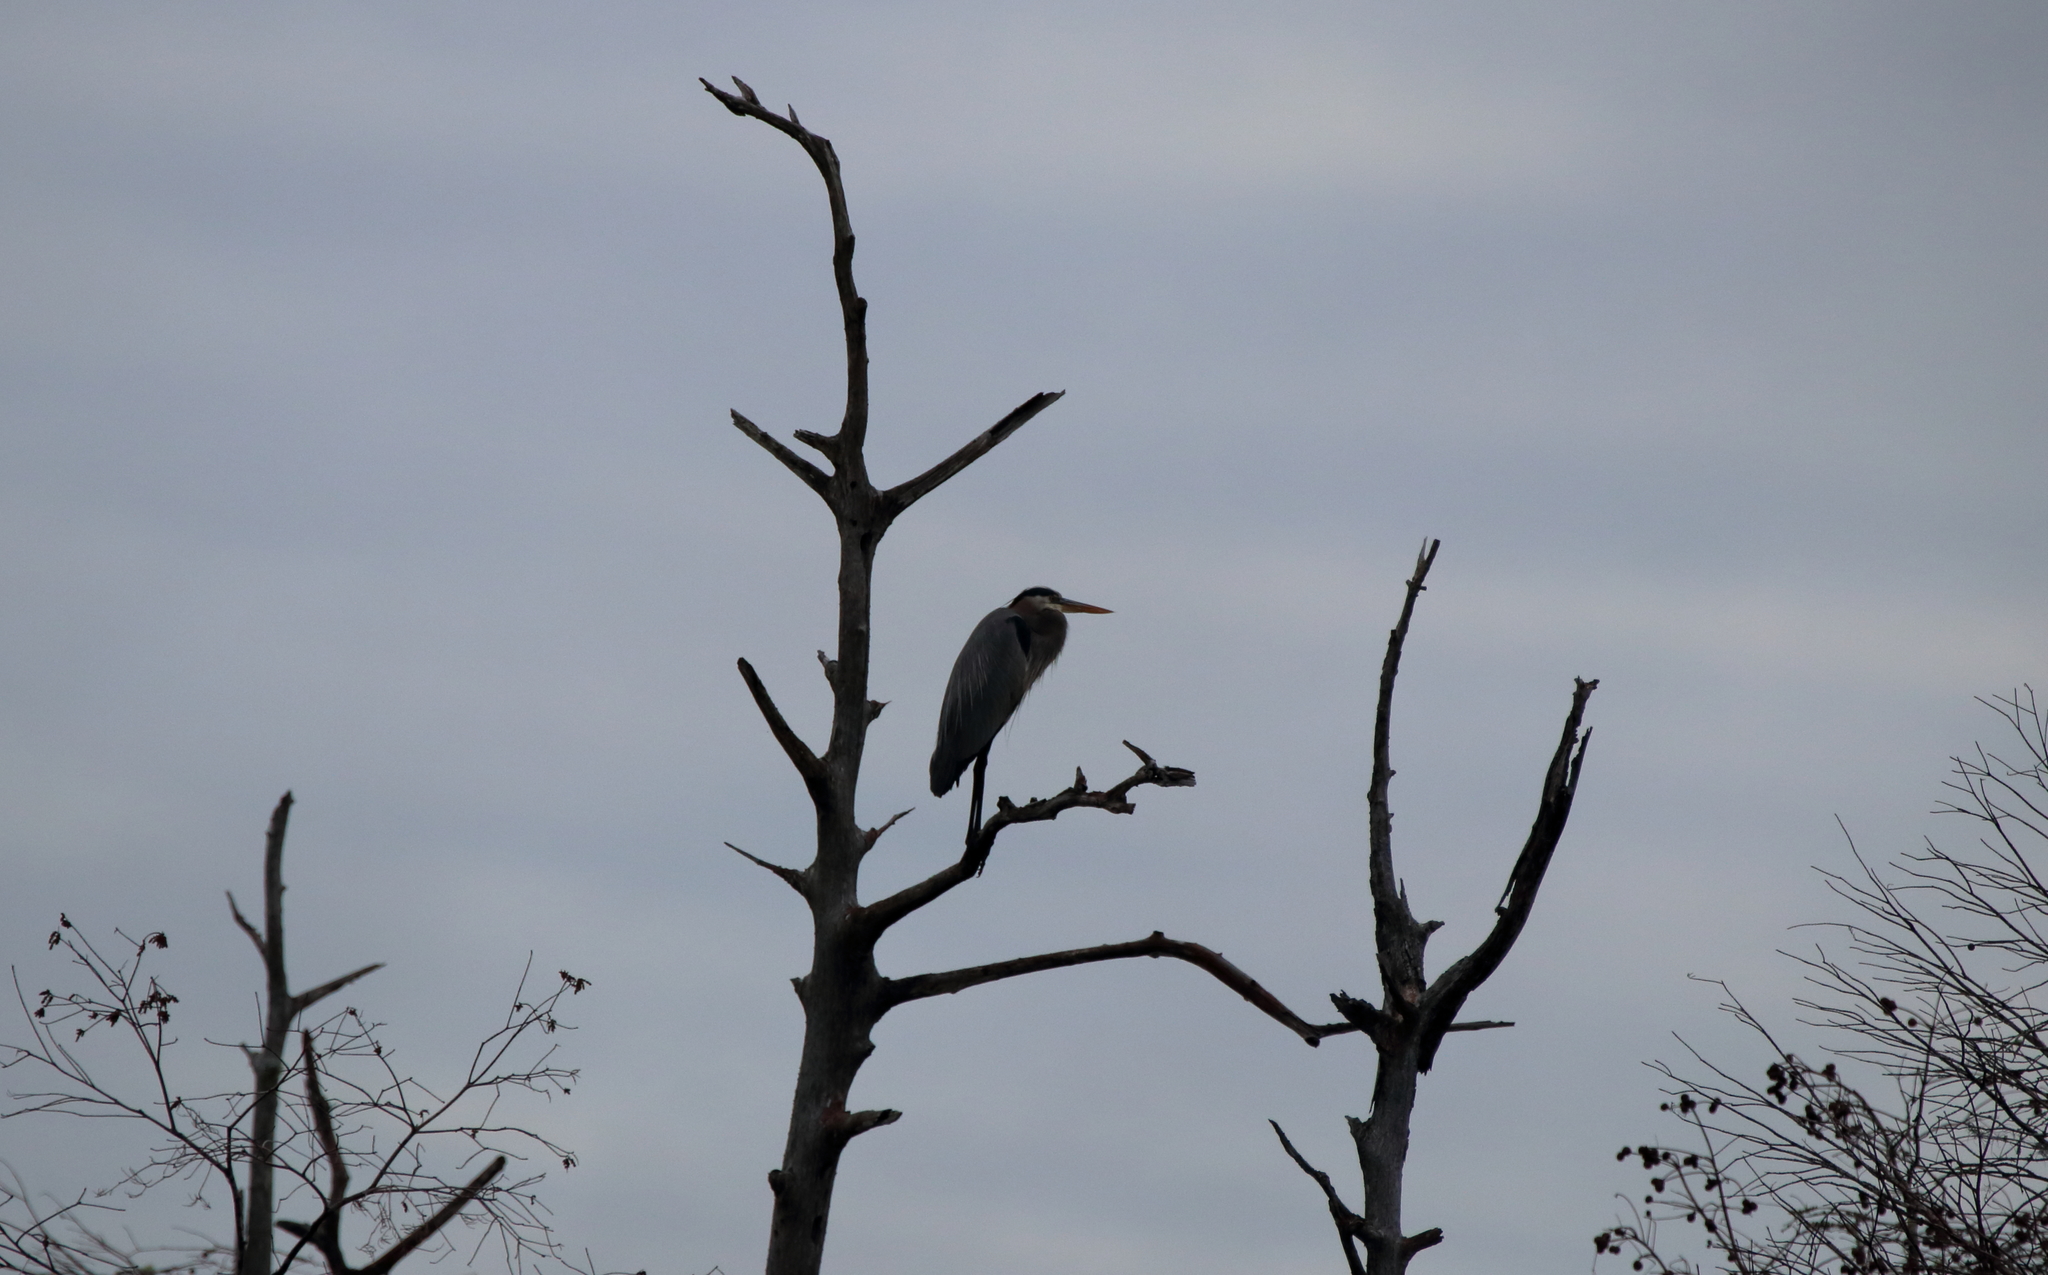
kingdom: Animalia
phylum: Chordata
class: Aves
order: Pelecaniformes
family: Ardeidae
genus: Ardea
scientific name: Ardea herodias
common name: Great blue heron
